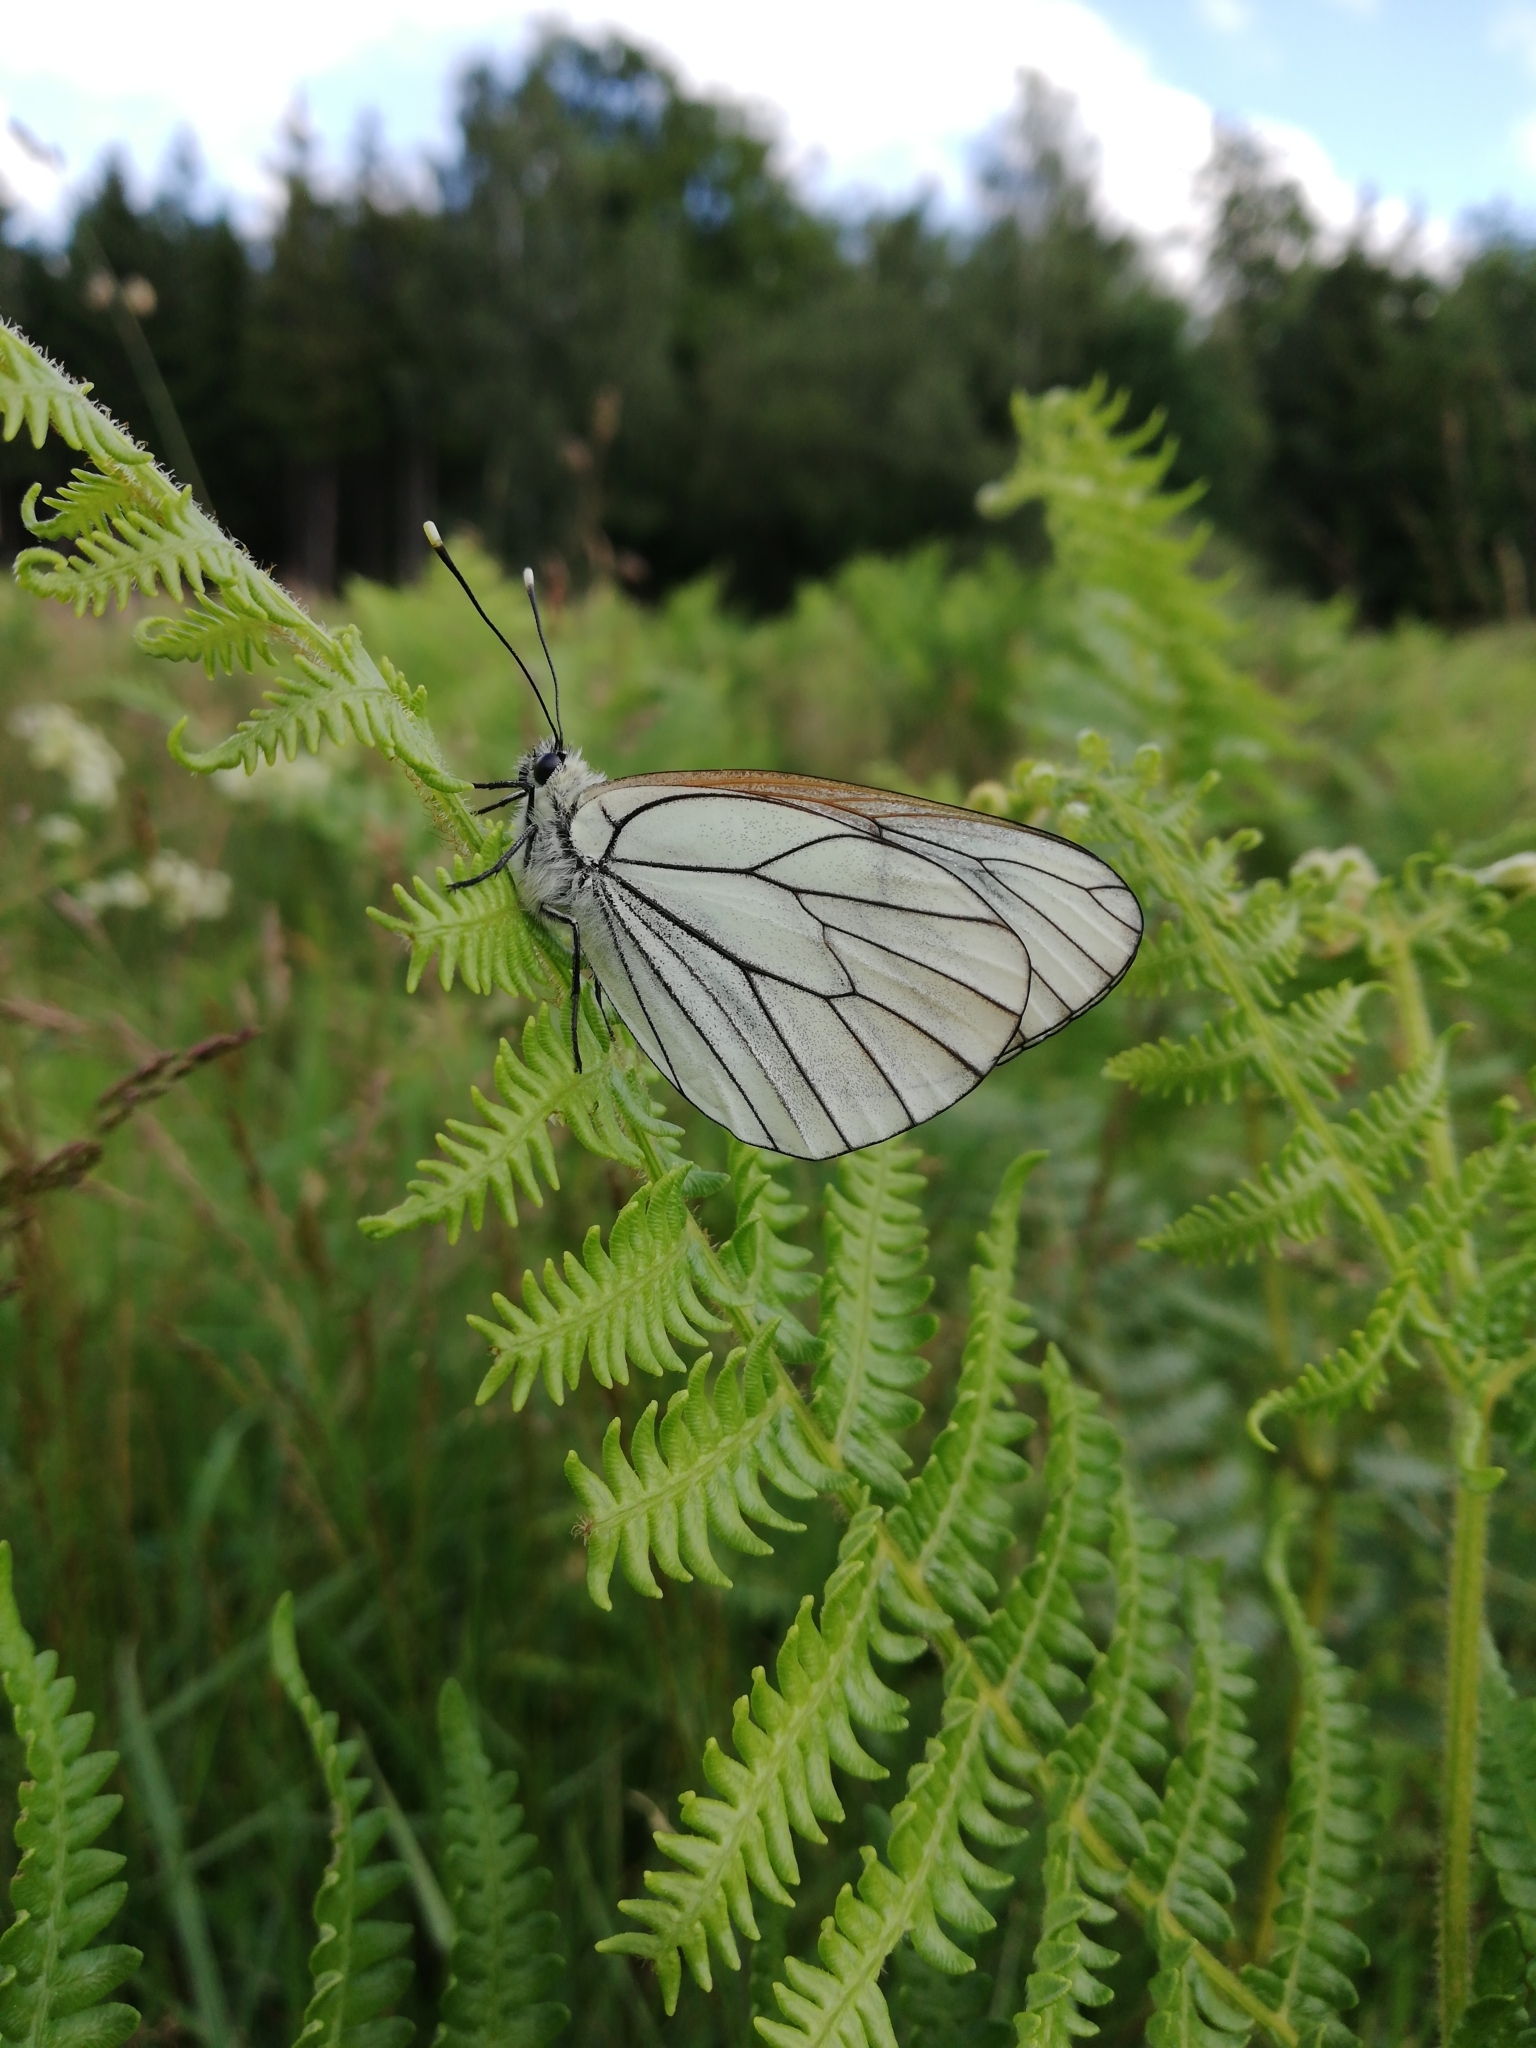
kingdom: Animalia
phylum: Arthropoda
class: Insecta
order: Lepidoptera
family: Pieridae
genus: Aporia
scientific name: Aporia crataegi
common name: Black-veined white
